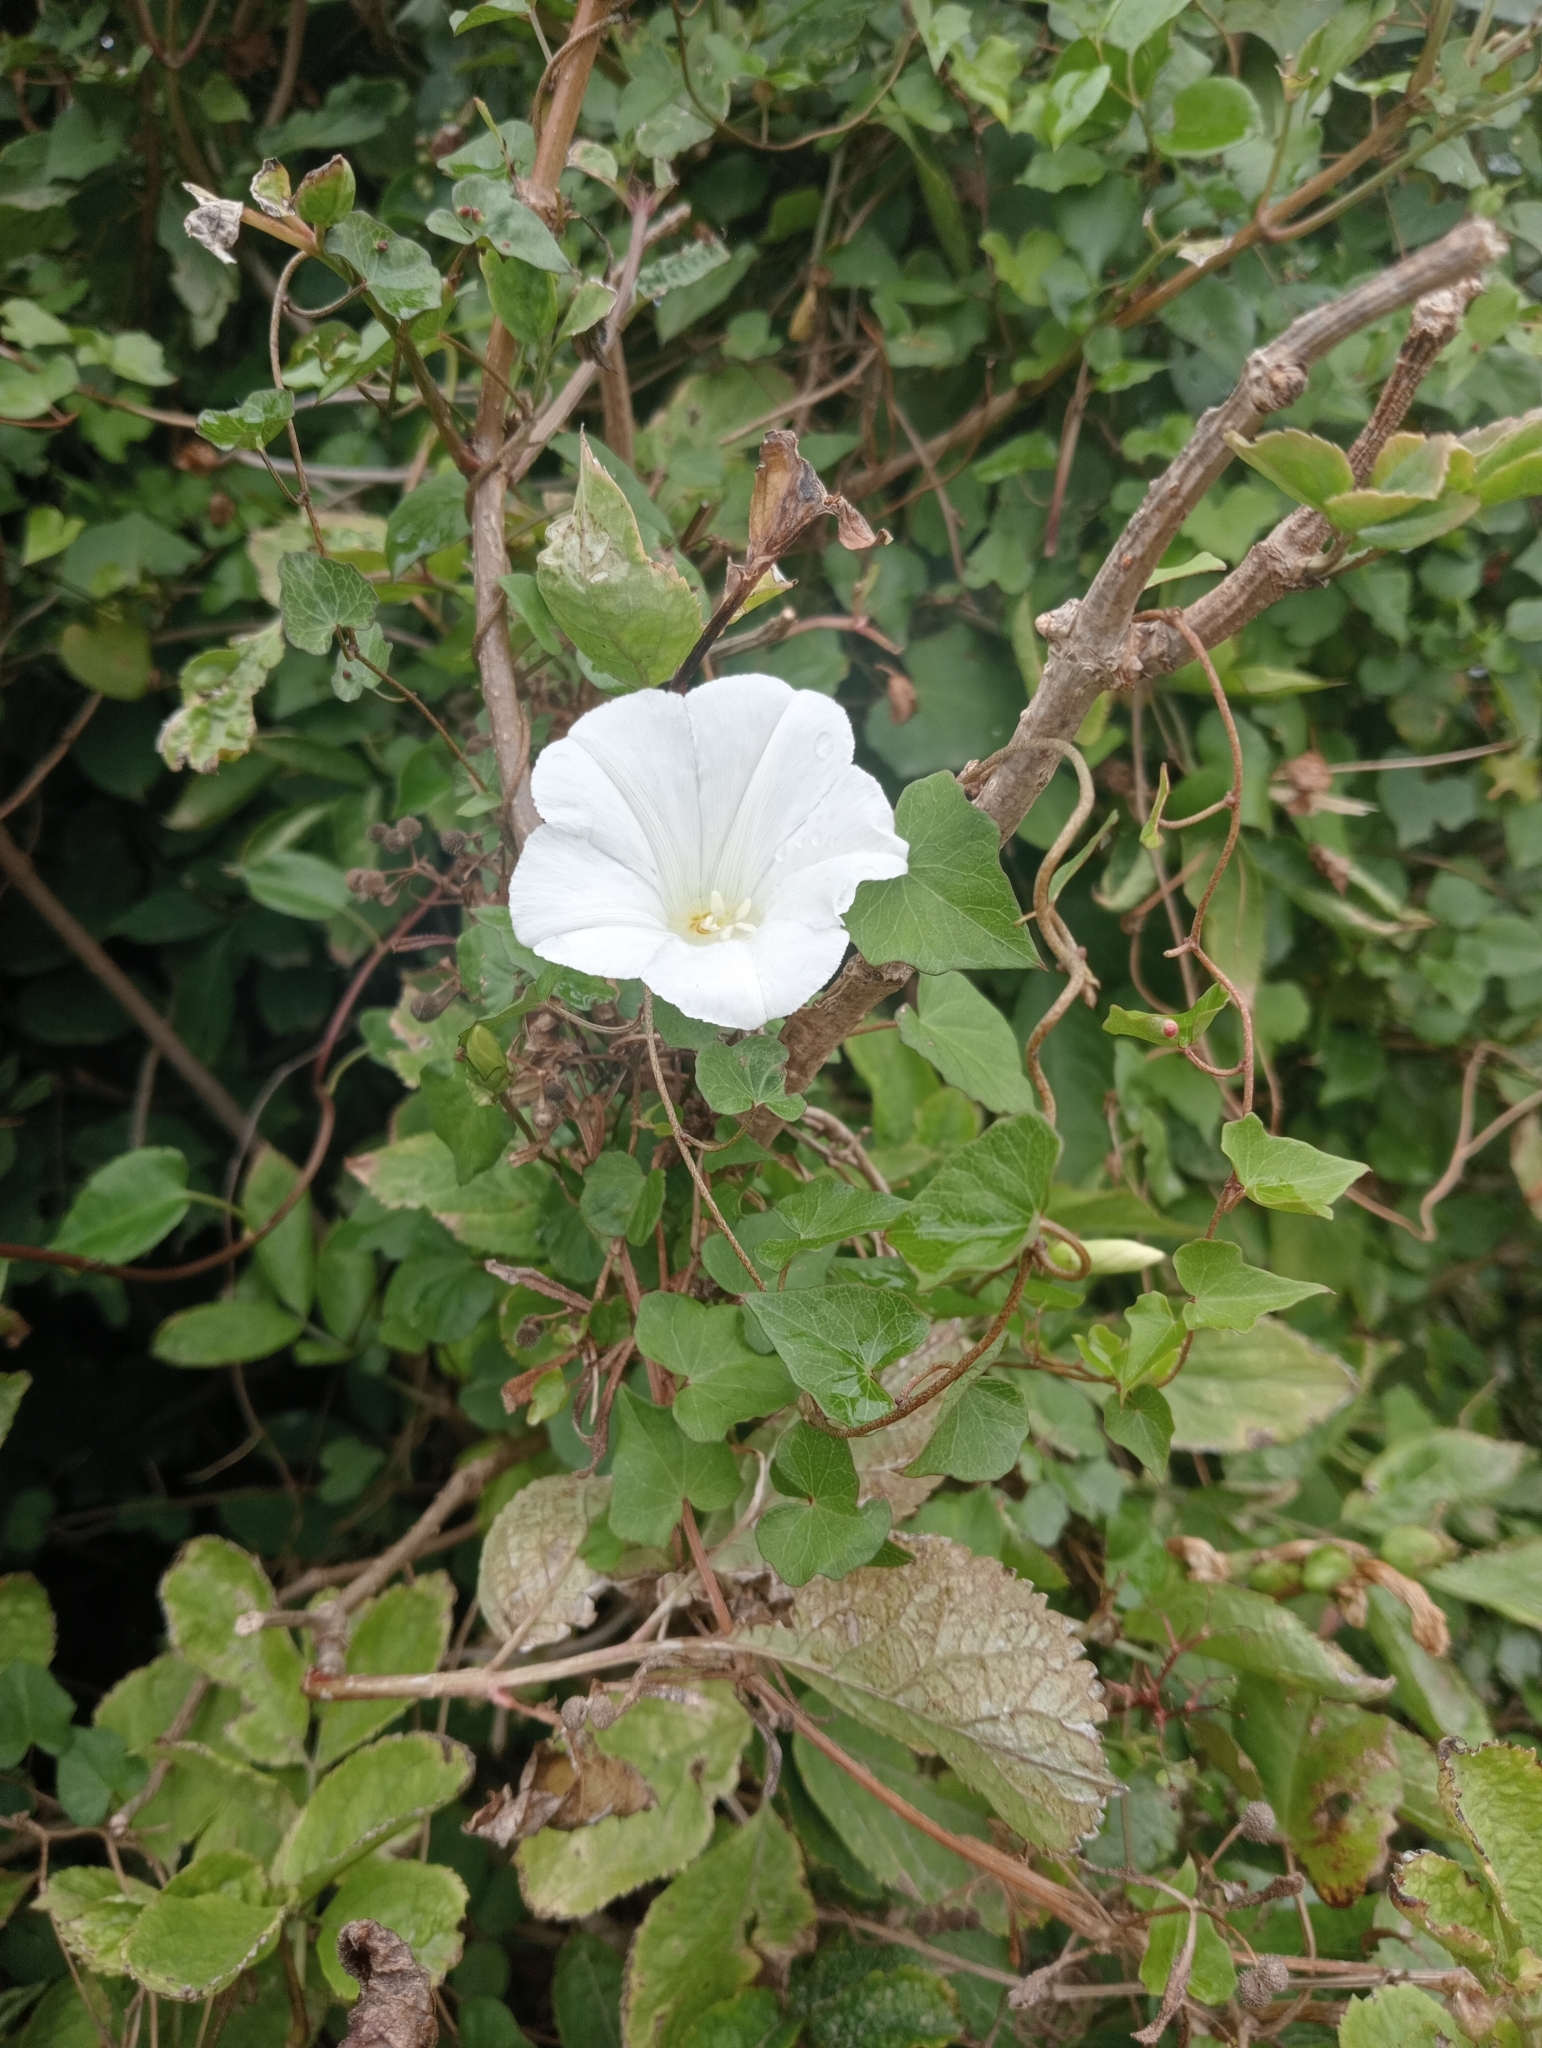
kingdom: Plantae
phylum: Tracheophyta
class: Magnoliopsida
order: Solanales
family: Convolvulaceae
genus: Calystegia
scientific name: Calystegia tuguriorum
